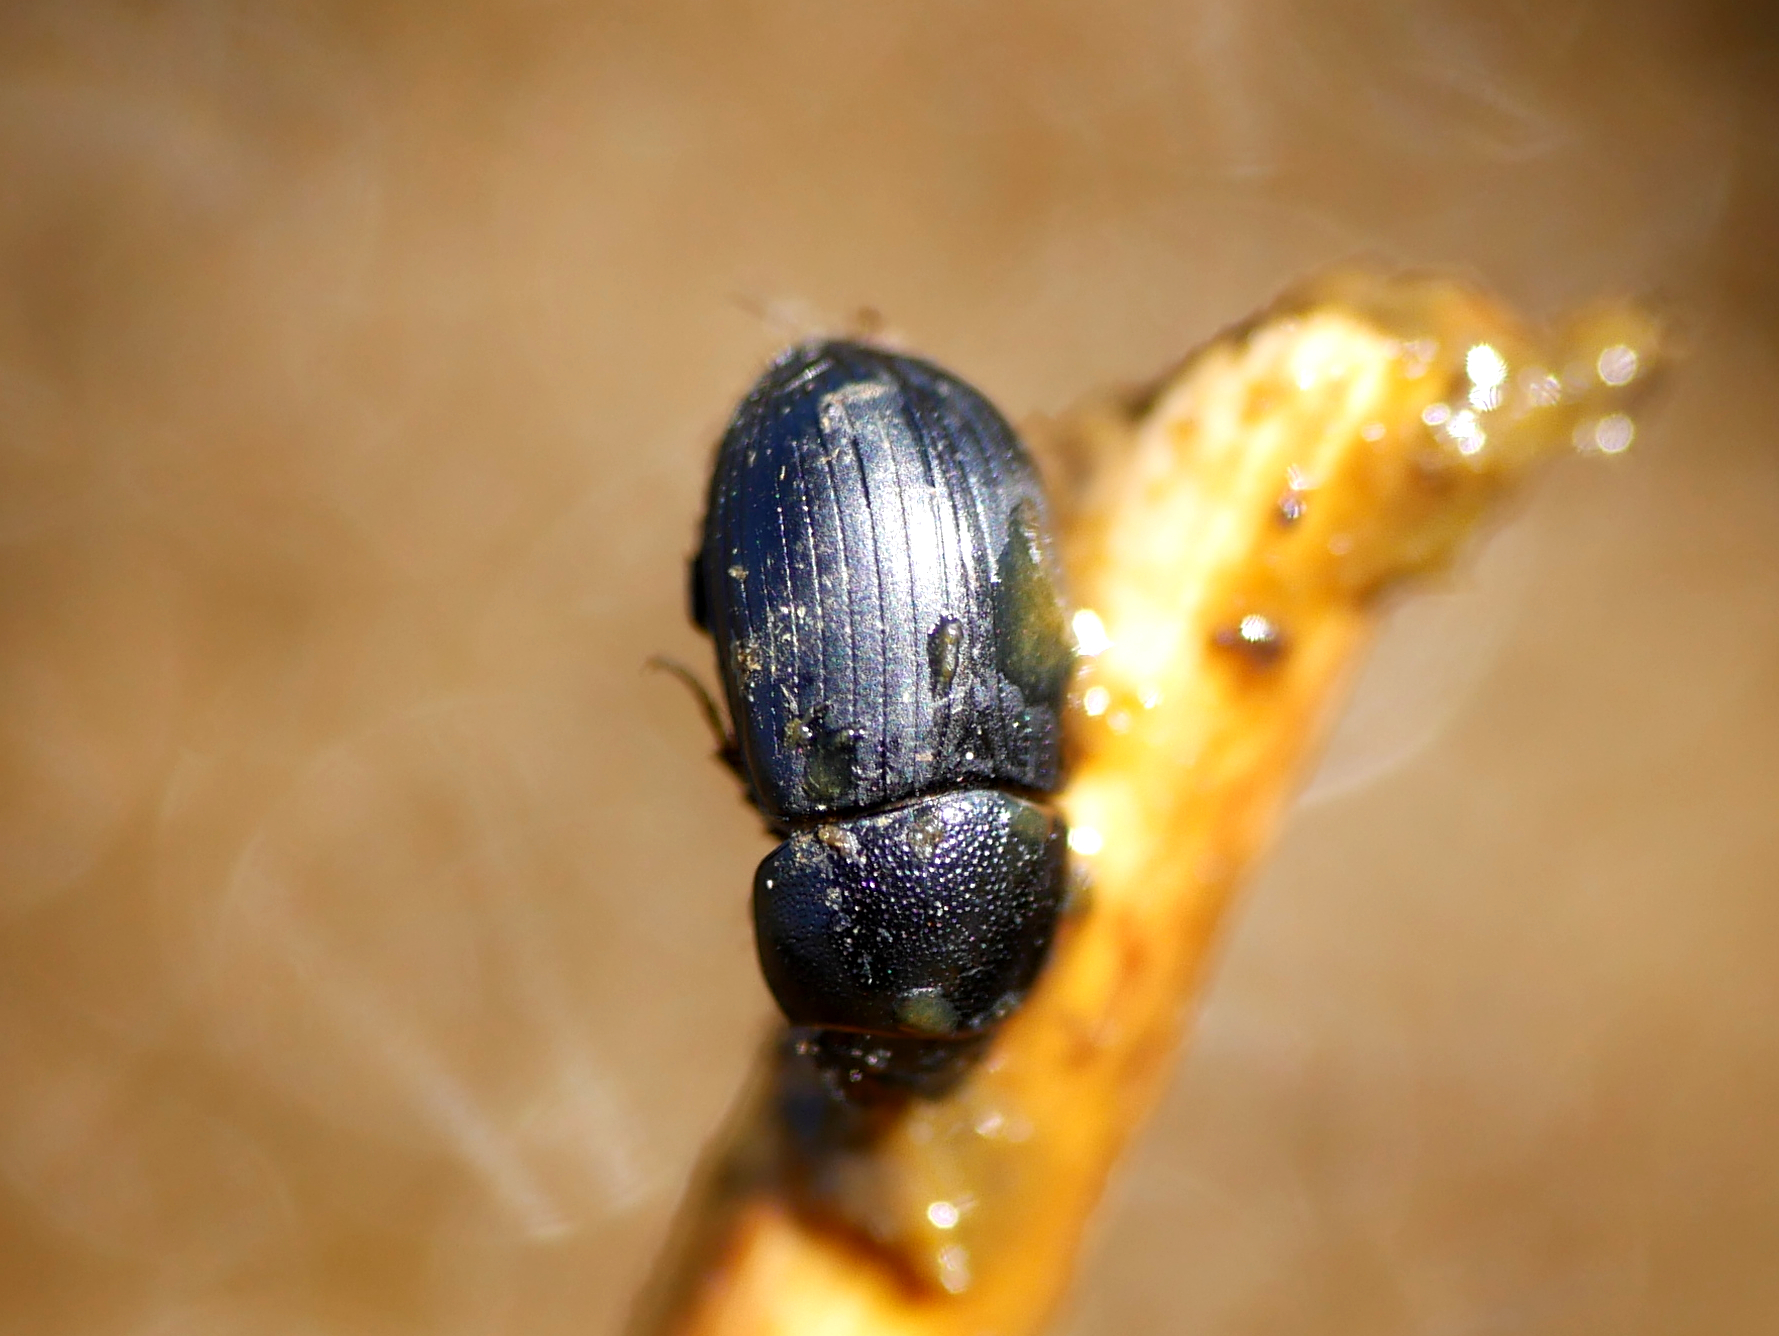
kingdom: Animalia
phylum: Arthropoda
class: Insecta
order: Coleoptera
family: Scarabaeidae
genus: Agrilinus
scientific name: Agrilinus ater
